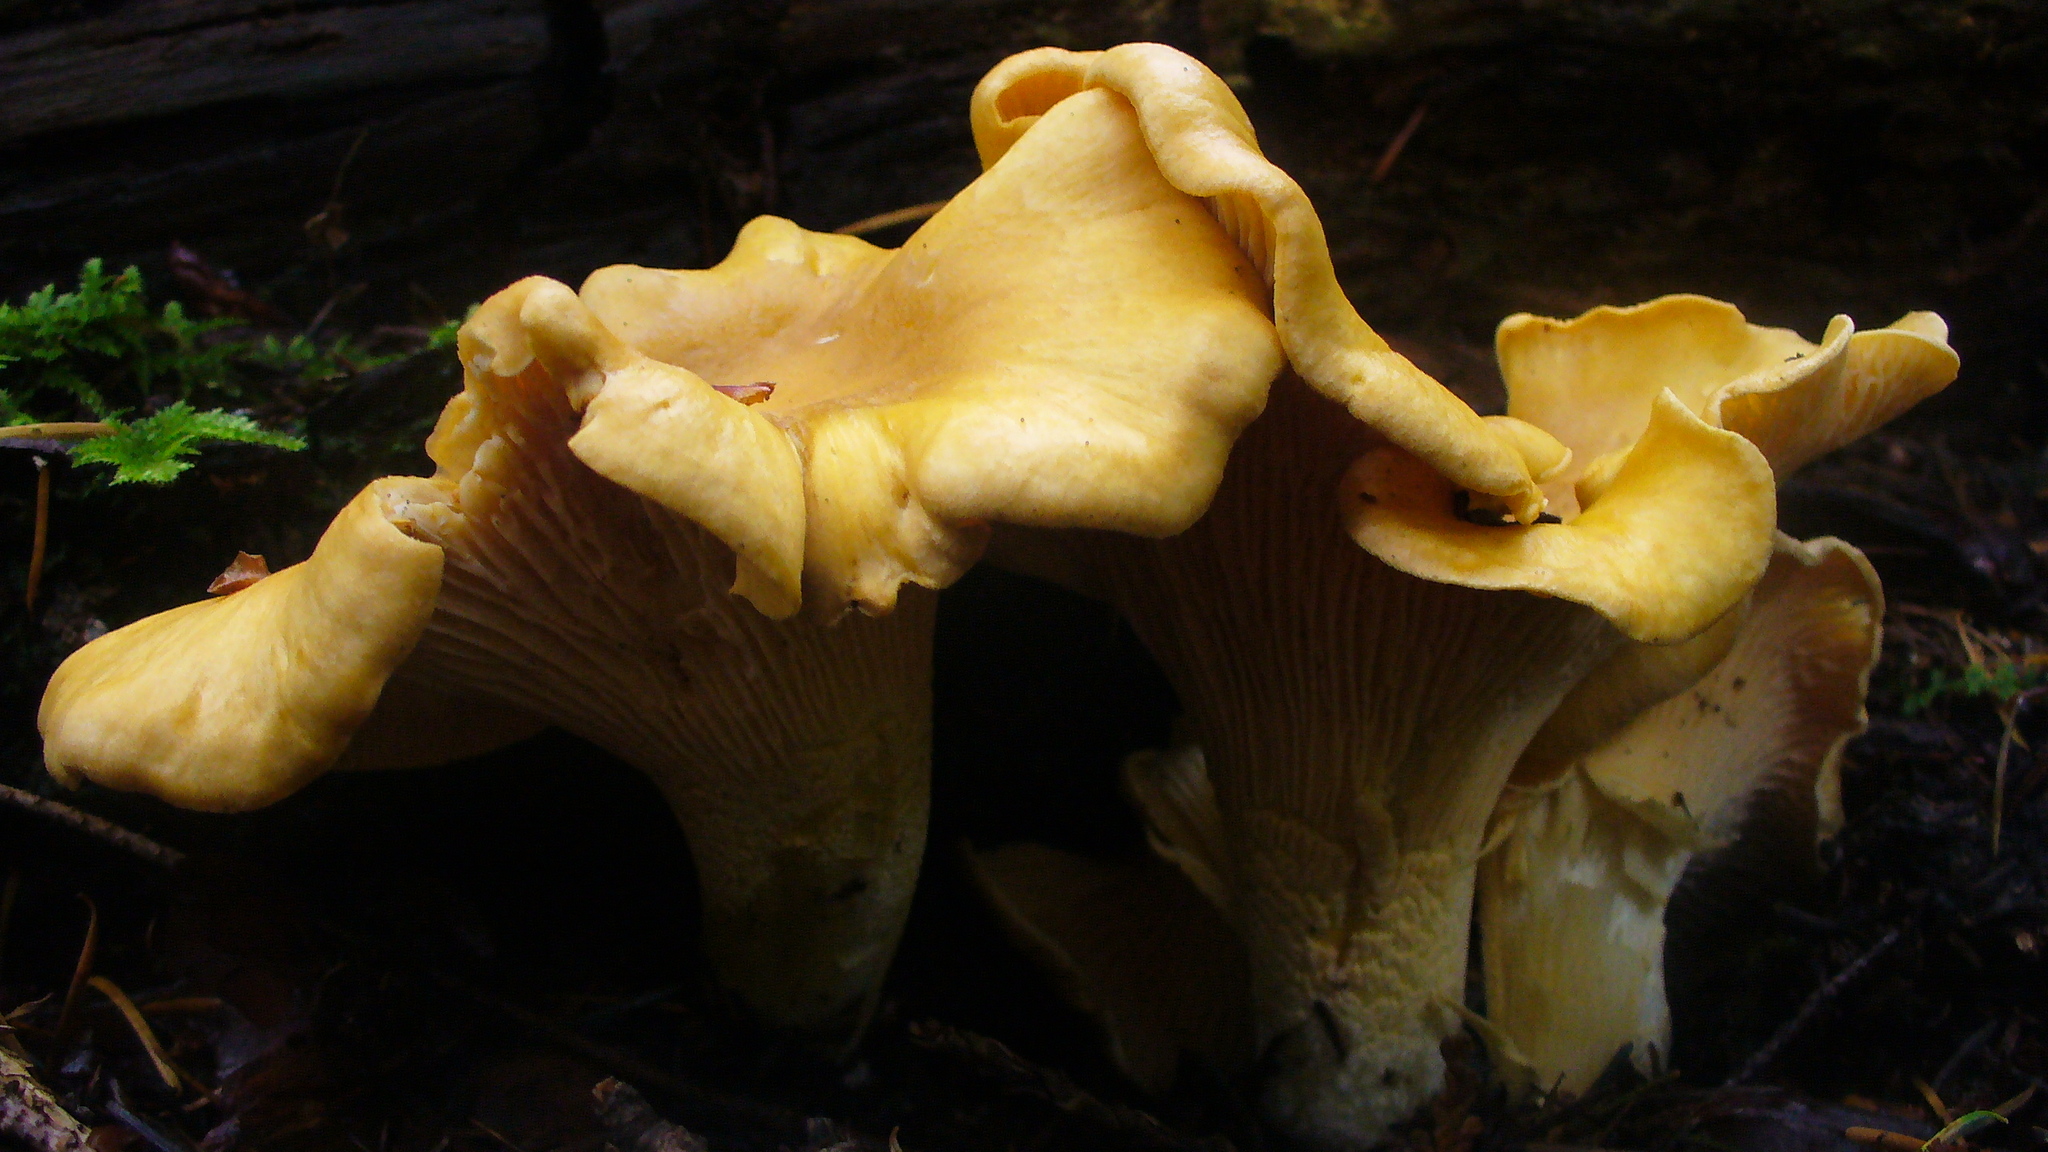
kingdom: Fungi
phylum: Basidiomycota
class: Agaricomycetes
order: Cantharellales
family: Hydnaceae
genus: Cantharellus
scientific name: Cantharellus formosus
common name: Pacific golden chanterelle
